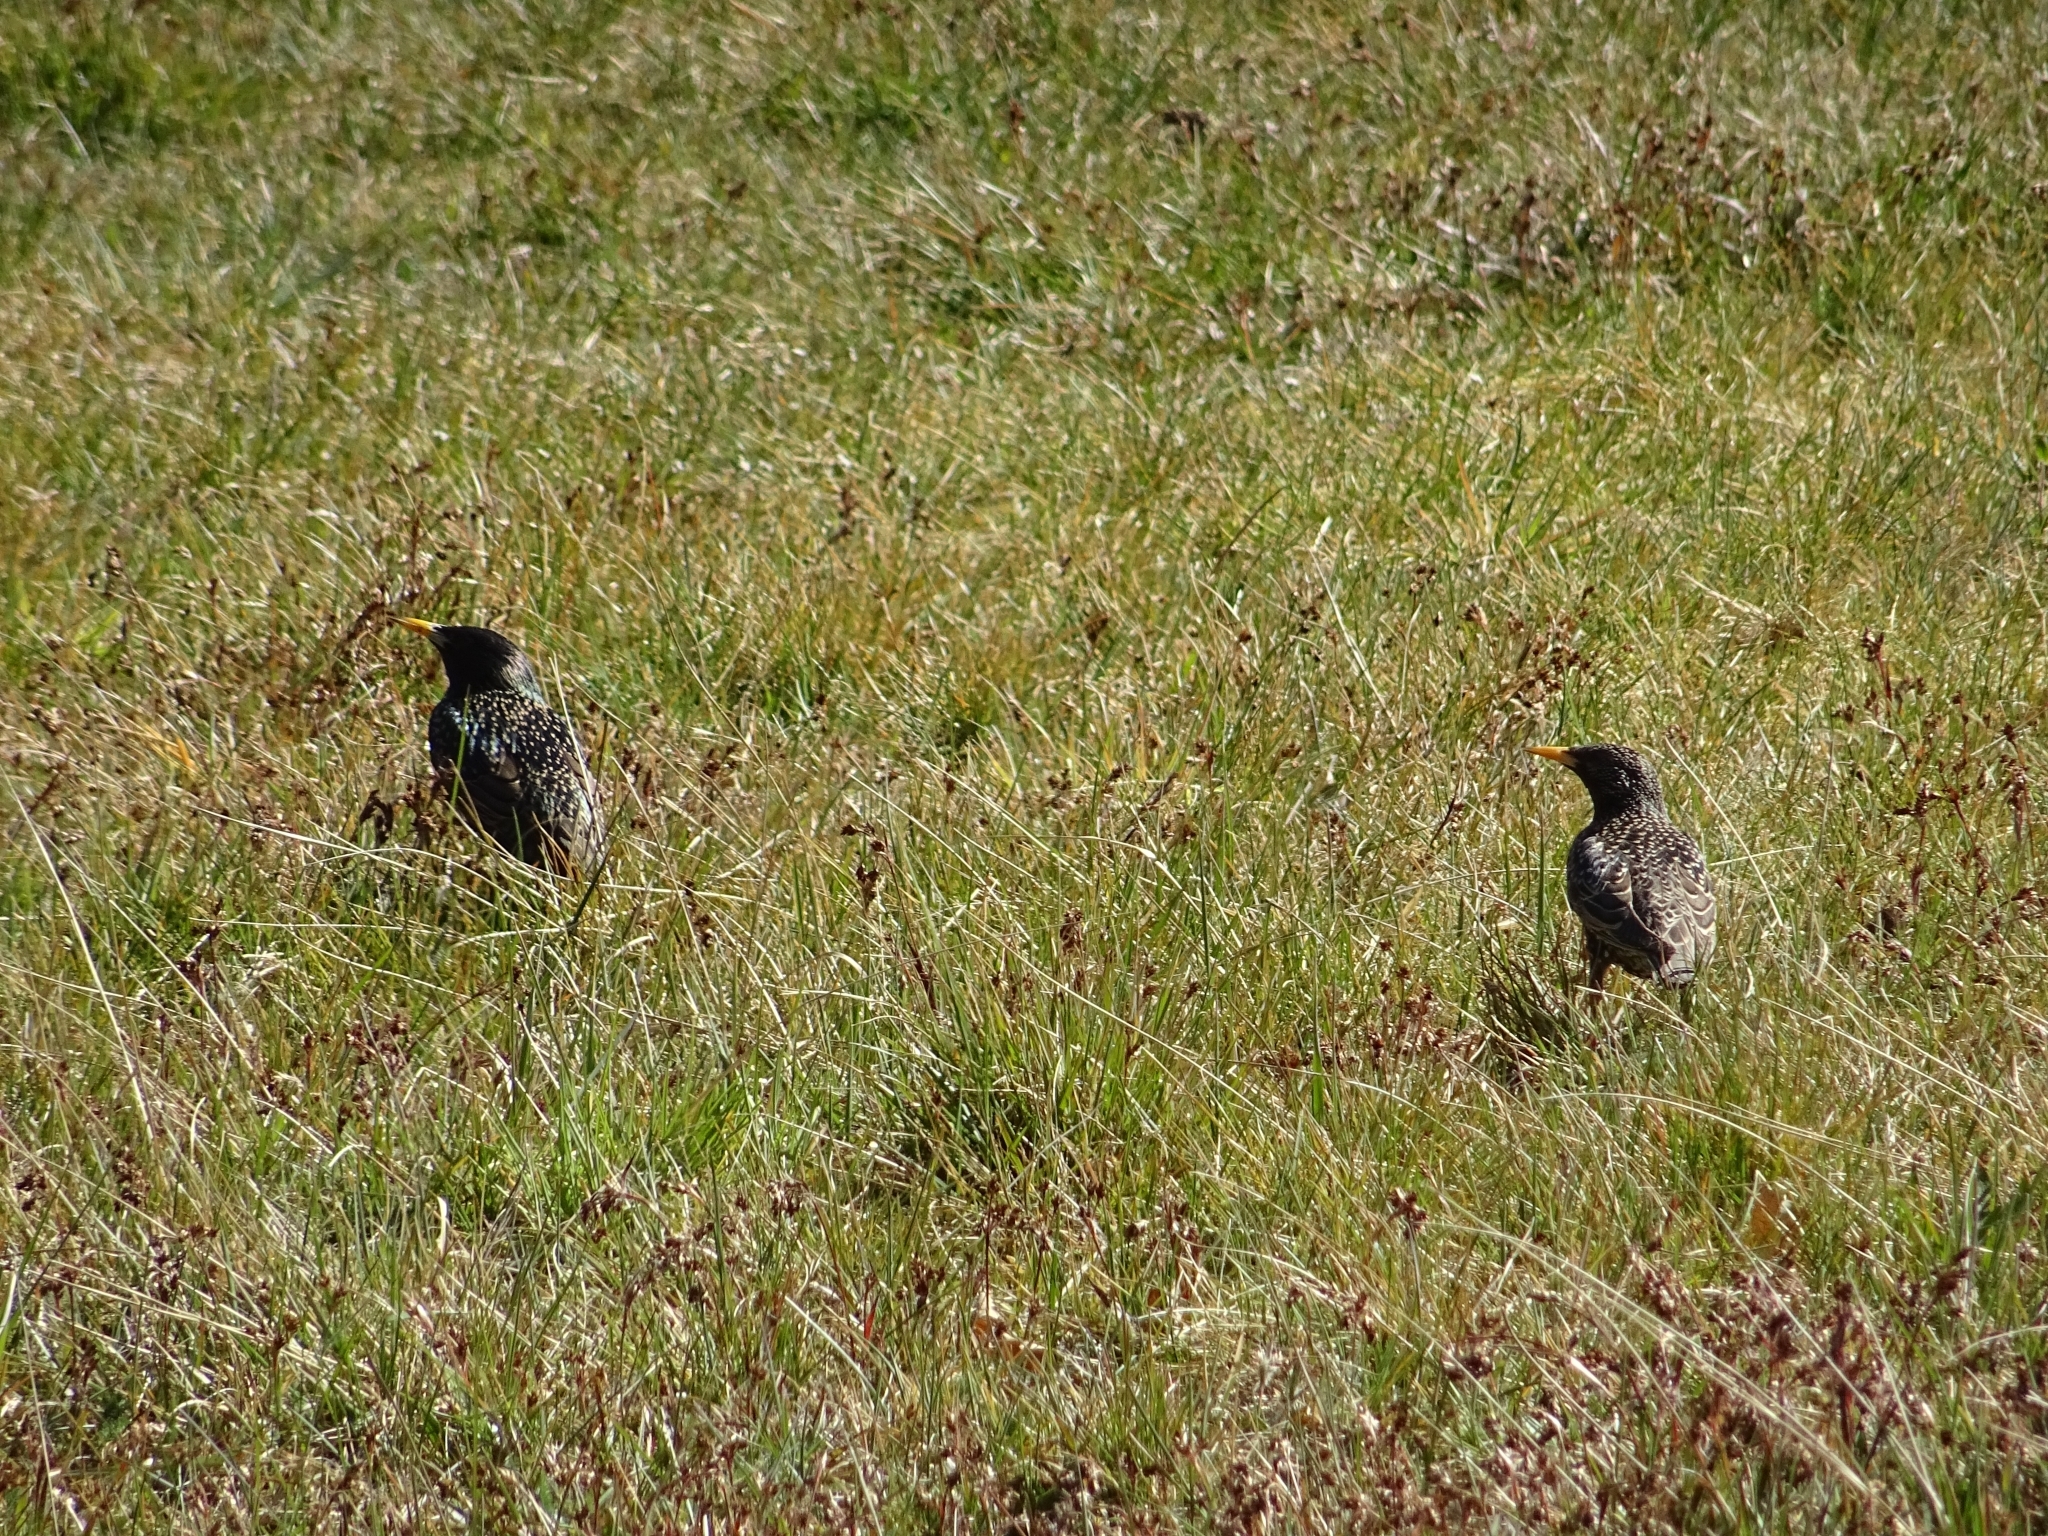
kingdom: Animalia
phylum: Chordata
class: Aves
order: Passeriformes
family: Sturnidae
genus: Sturnus
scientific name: Sturnus vulgaris
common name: Common starling
